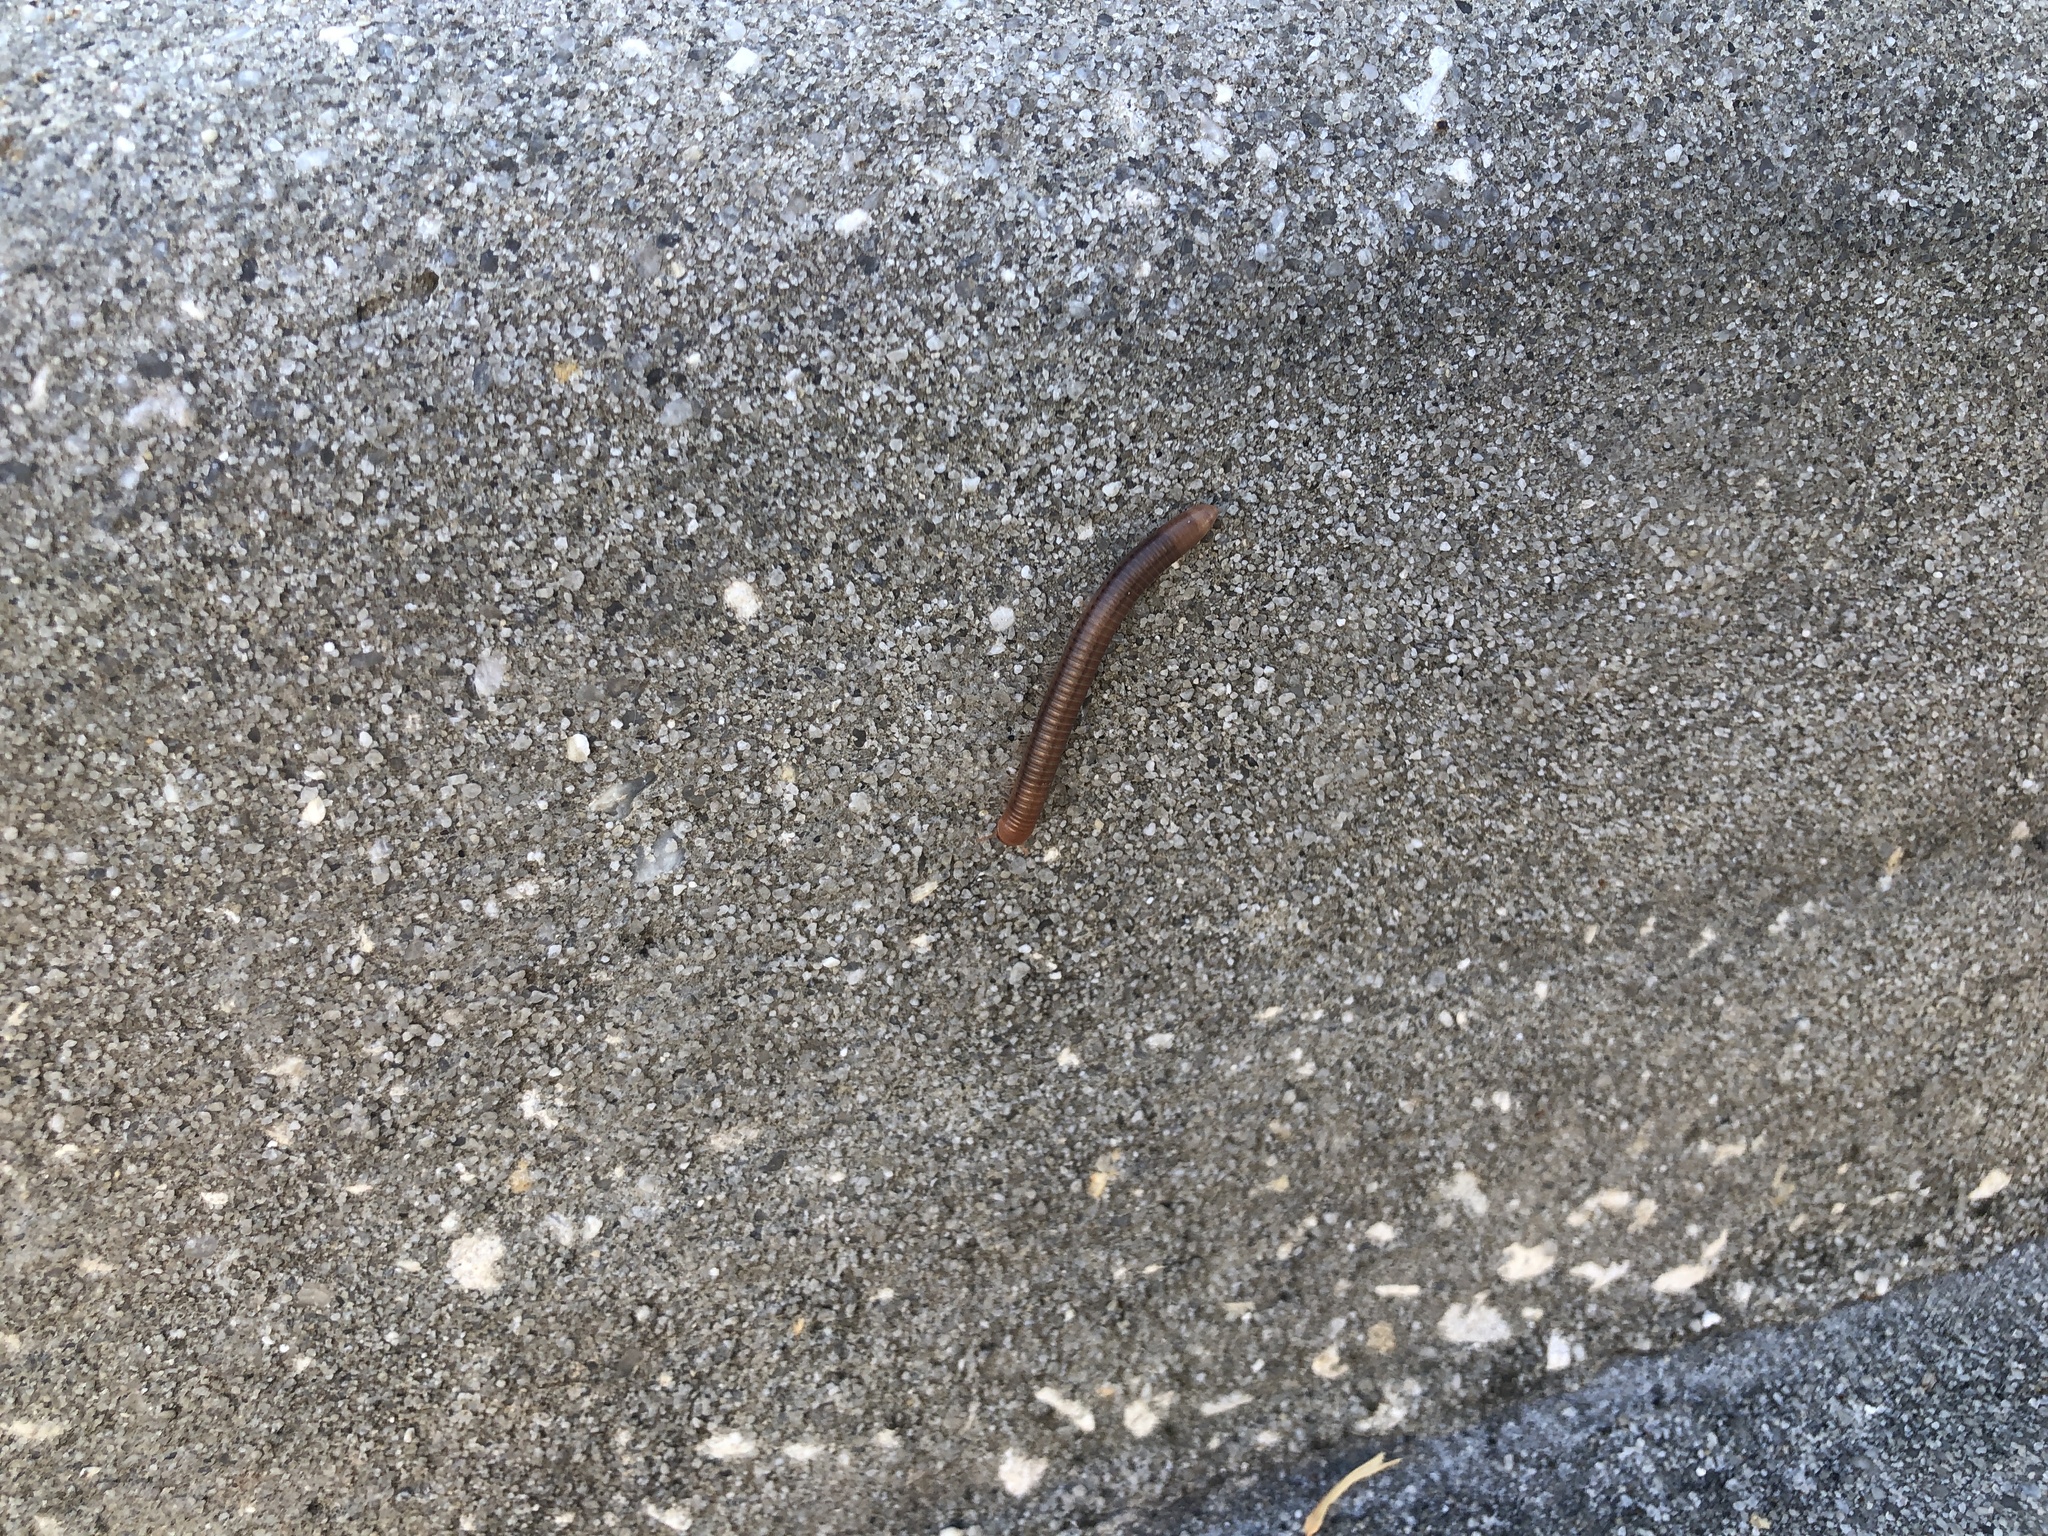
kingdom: Animalia
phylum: Arthropoda
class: Diplopoda
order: Spirobolida
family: Pachybolidae
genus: Trigoniulus
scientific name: Trigoniulus corallinus
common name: Millipede
